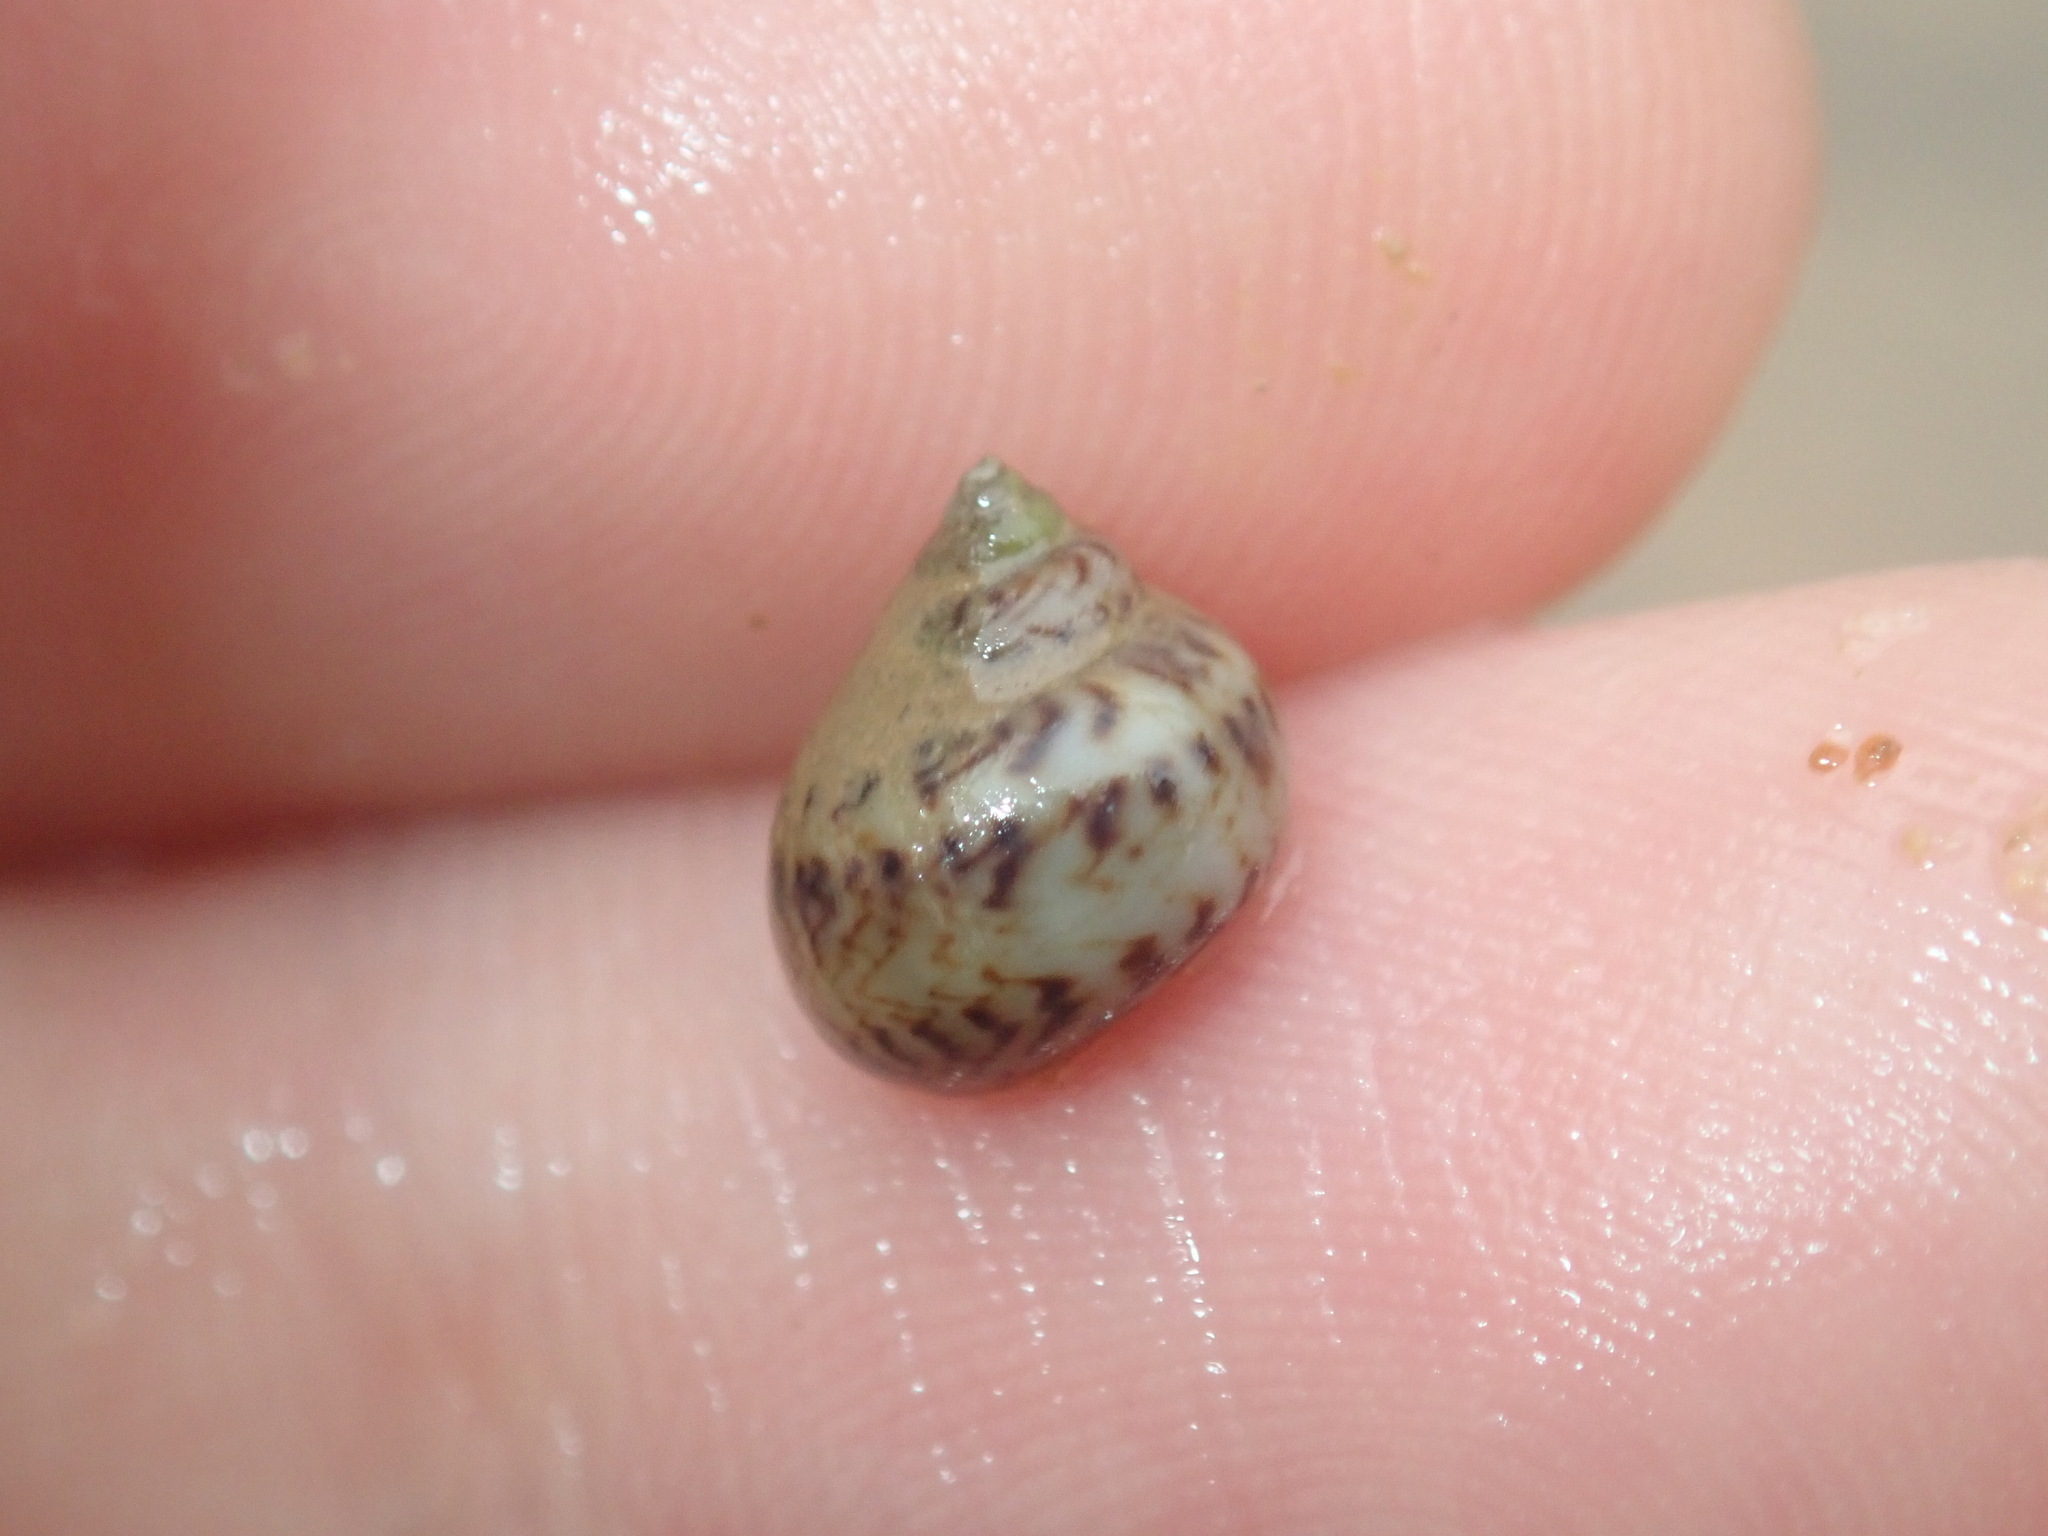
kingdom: Animalia
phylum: Mollusca
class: Gastropoda
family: Amphibolidae
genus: Phallomedusa
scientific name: Phallomedusa solida
